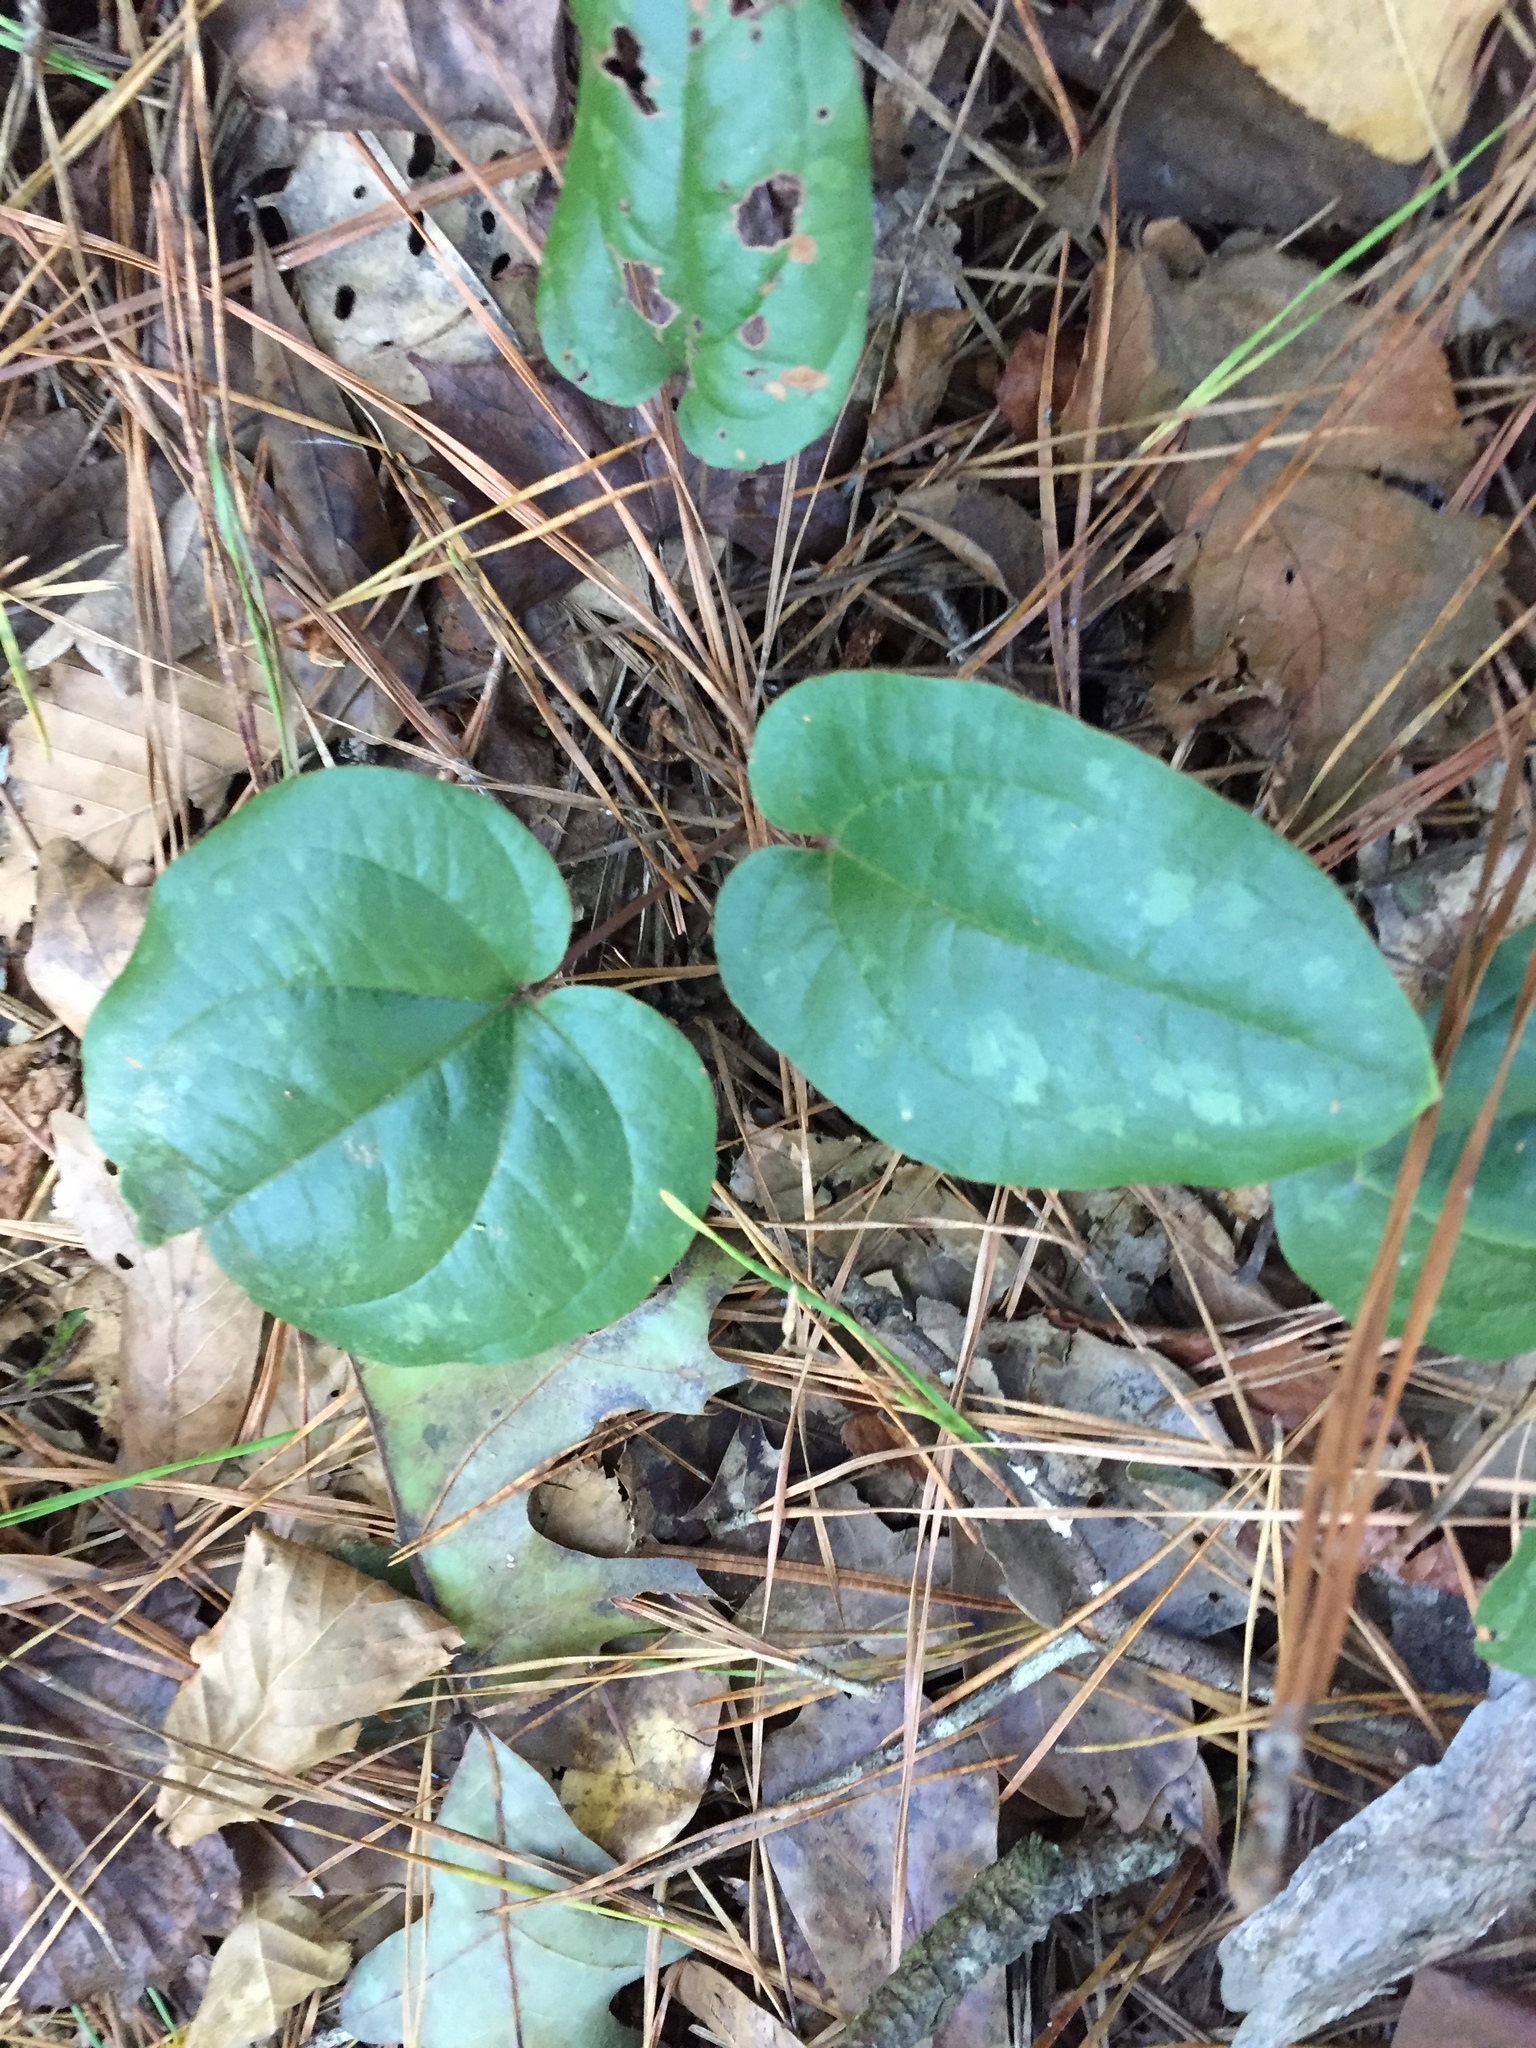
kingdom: Plantae
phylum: Tracheophyta
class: Liliopsida
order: Liliales
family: Smilacaceae
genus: Smilax
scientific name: Smilax pumila
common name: Sarsaparilla-vine
